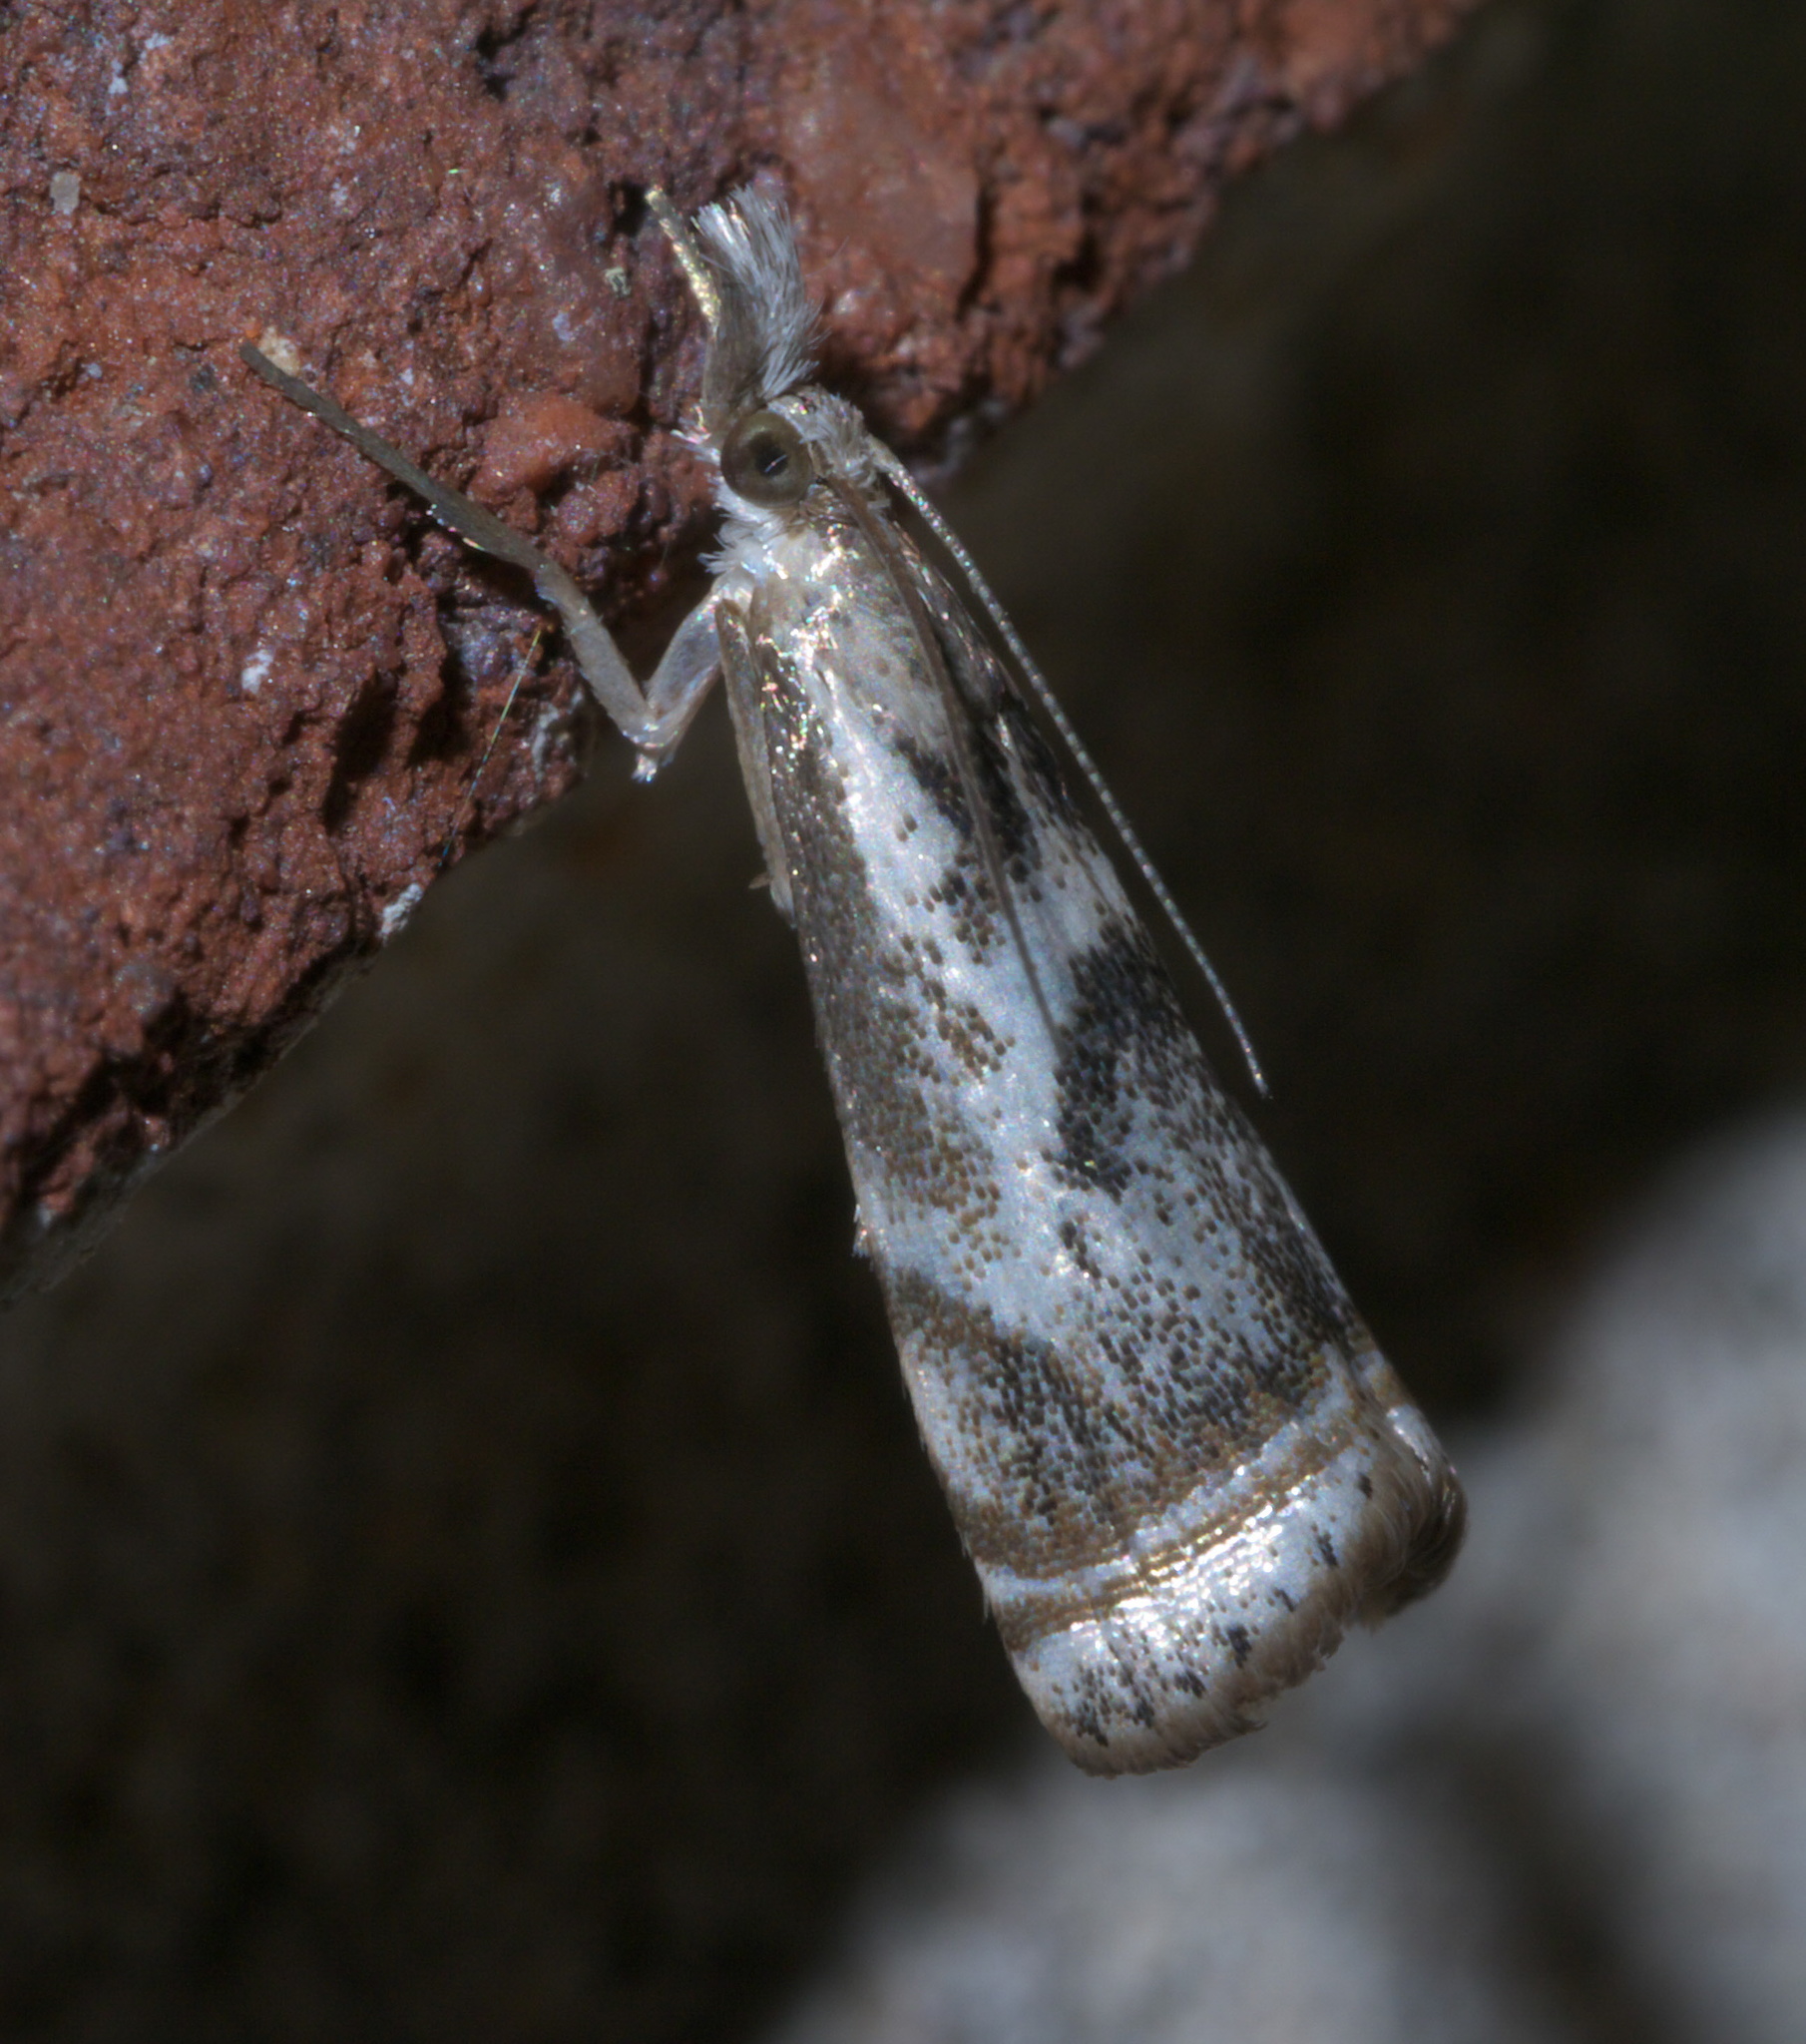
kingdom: Animalia
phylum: Arthropoda
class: Insecta
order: Lepidoptera
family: Crambidae
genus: Microcrambus
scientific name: Microcrambus elegans
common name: Elegant grass-veneer
